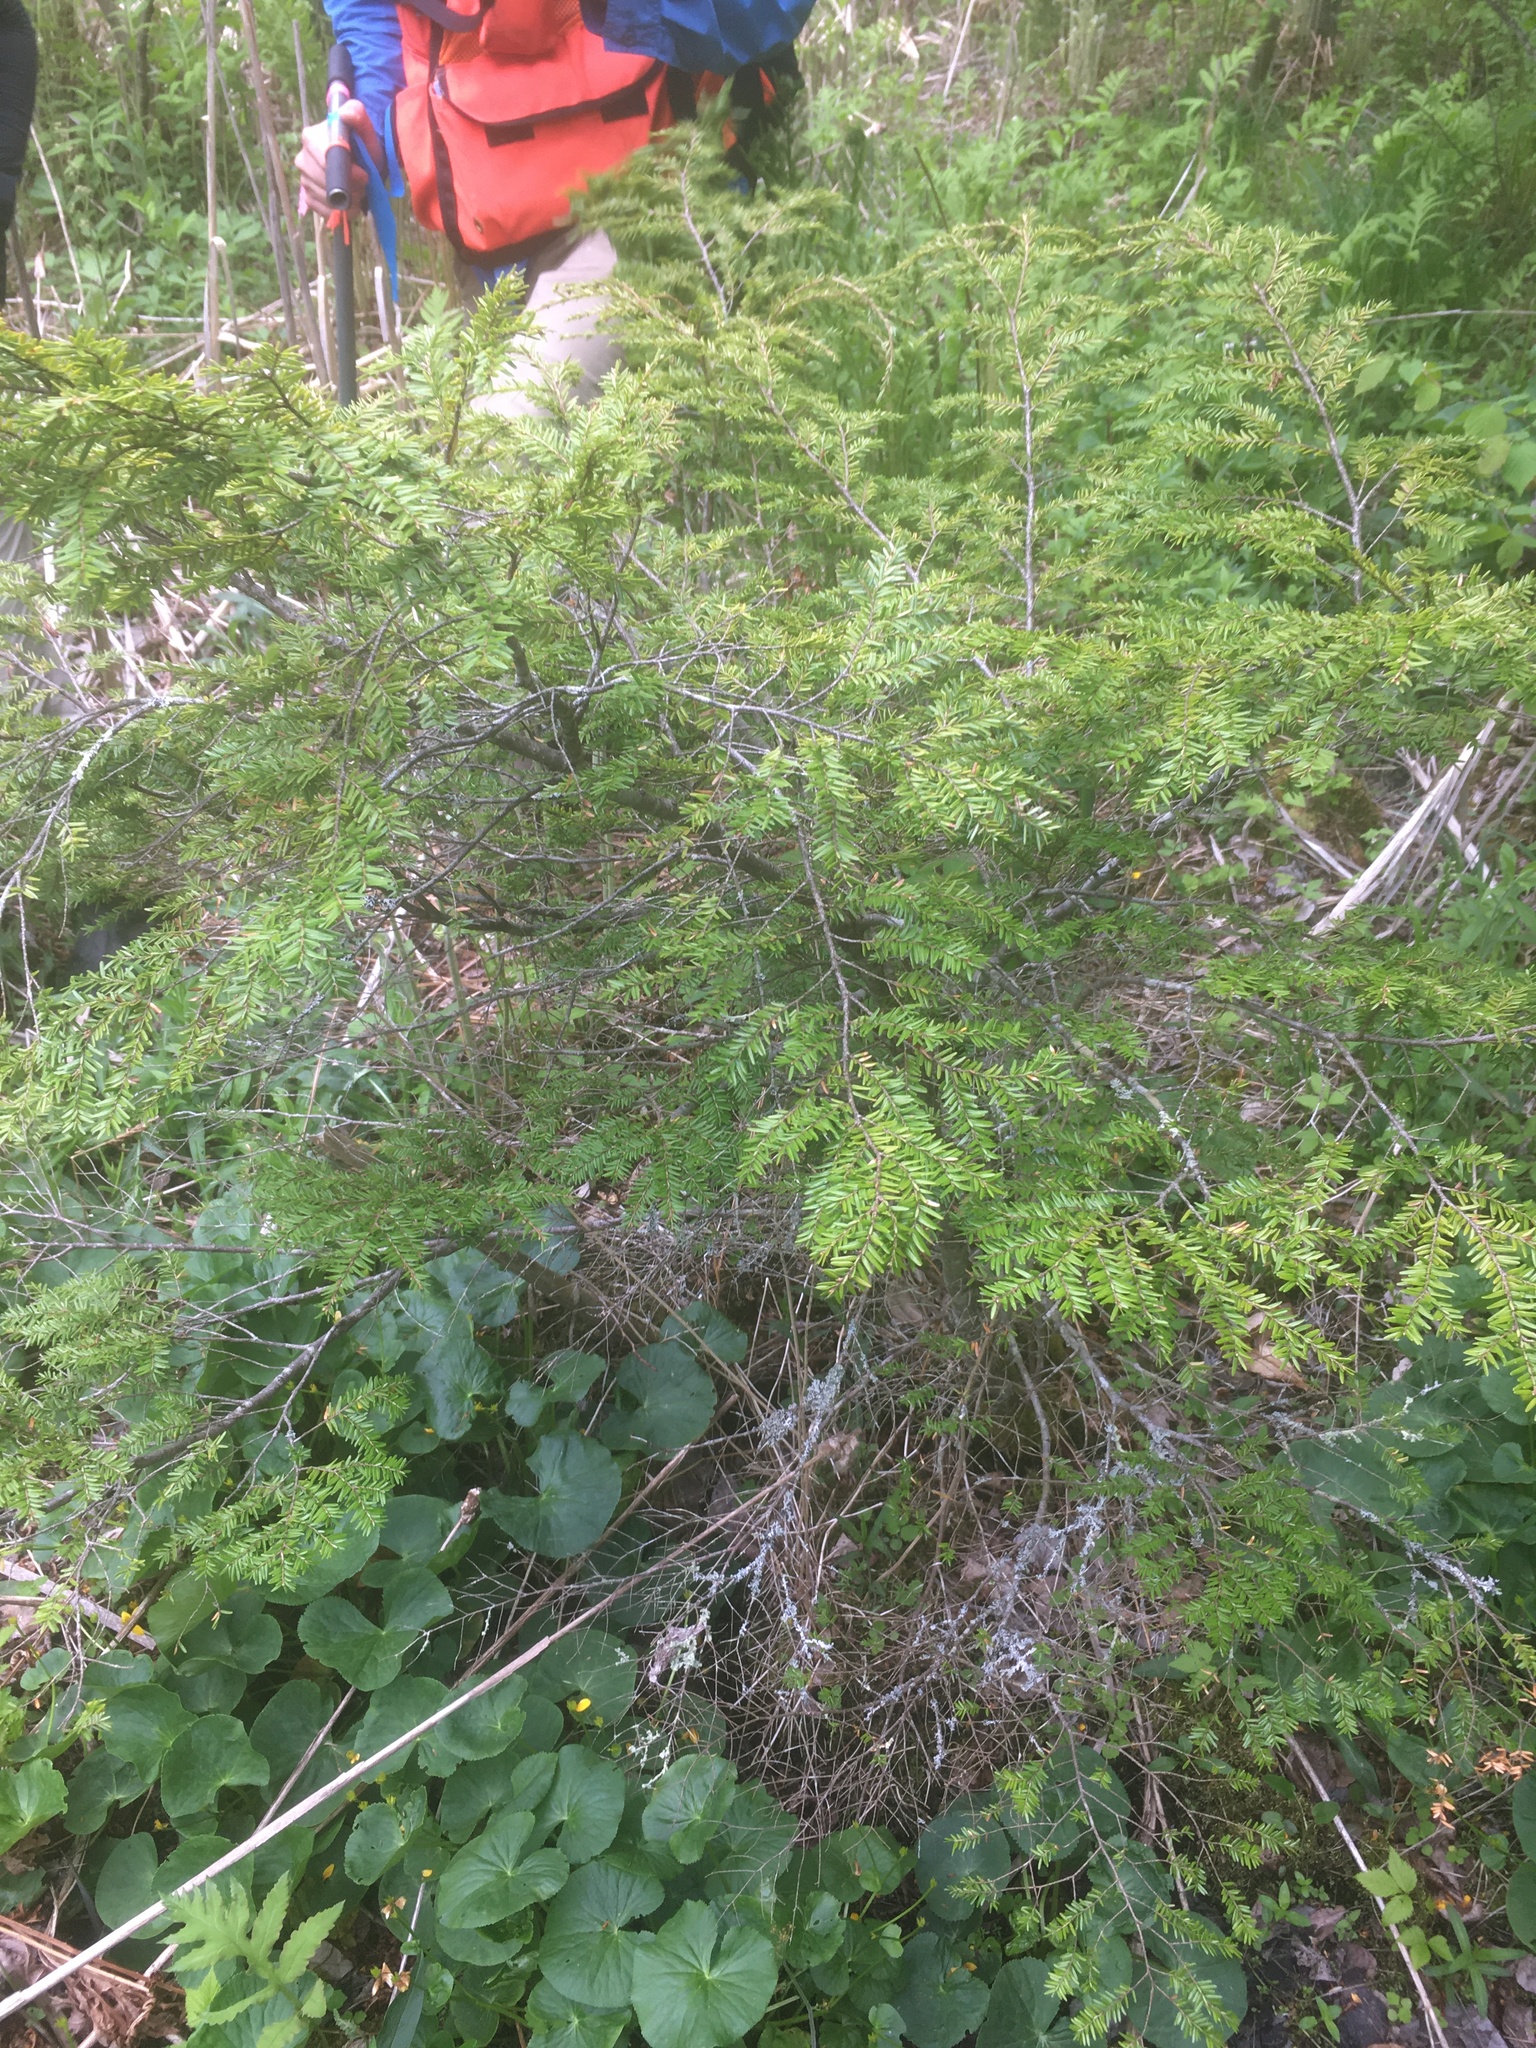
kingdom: Plantae
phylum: Tracheophyta
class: Pinopsida
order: Pinales
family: Pinaceae
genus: Tsuga
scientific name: Tsuga canadensis
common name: Eastern hemlock
